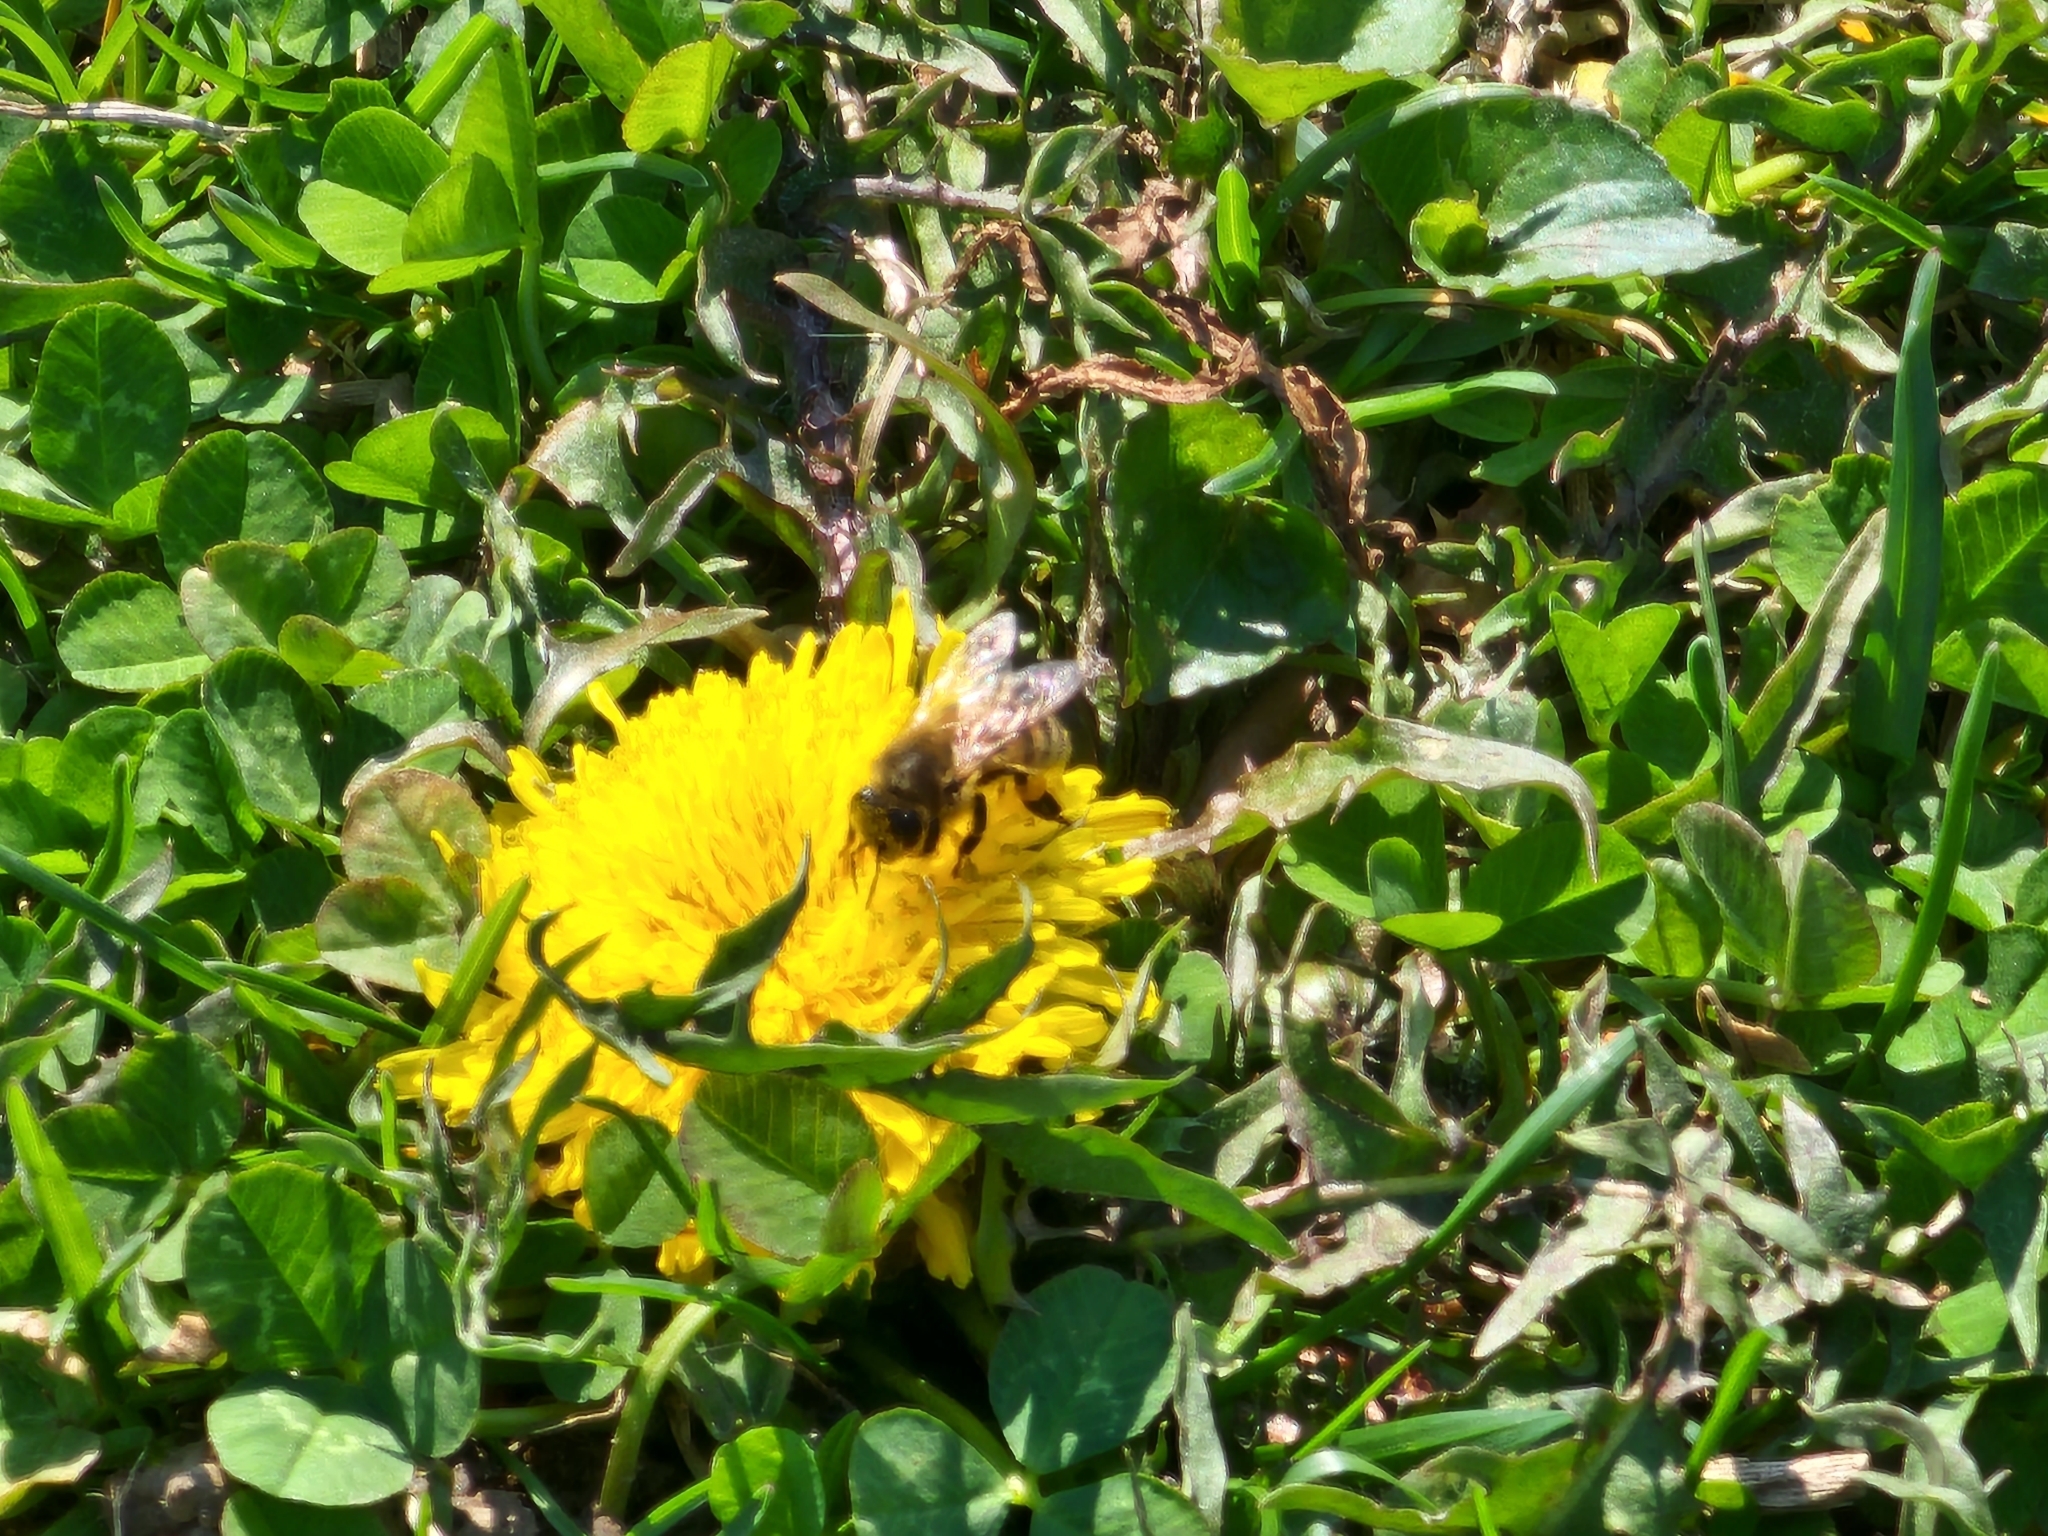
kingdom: Animalia
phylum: Arthropoda
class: Insecta
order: Hymenoptera
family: Apidae
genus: Apis
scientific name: Apis mellifera
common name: Honey bee
